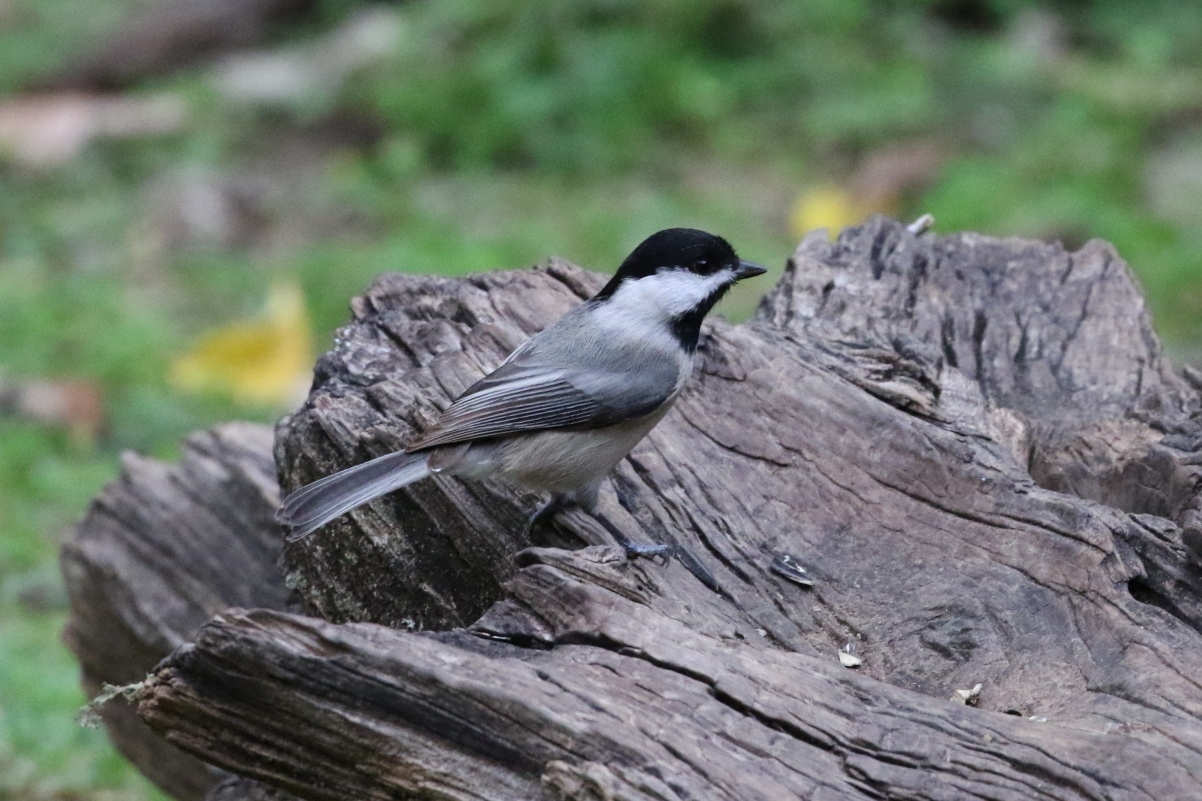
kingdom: Animalia
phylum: Chordata
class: Aves
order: Passeriformes
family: Paridae
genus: Poecile
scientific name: Poecile carolinensis
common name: Carolina chickadee
